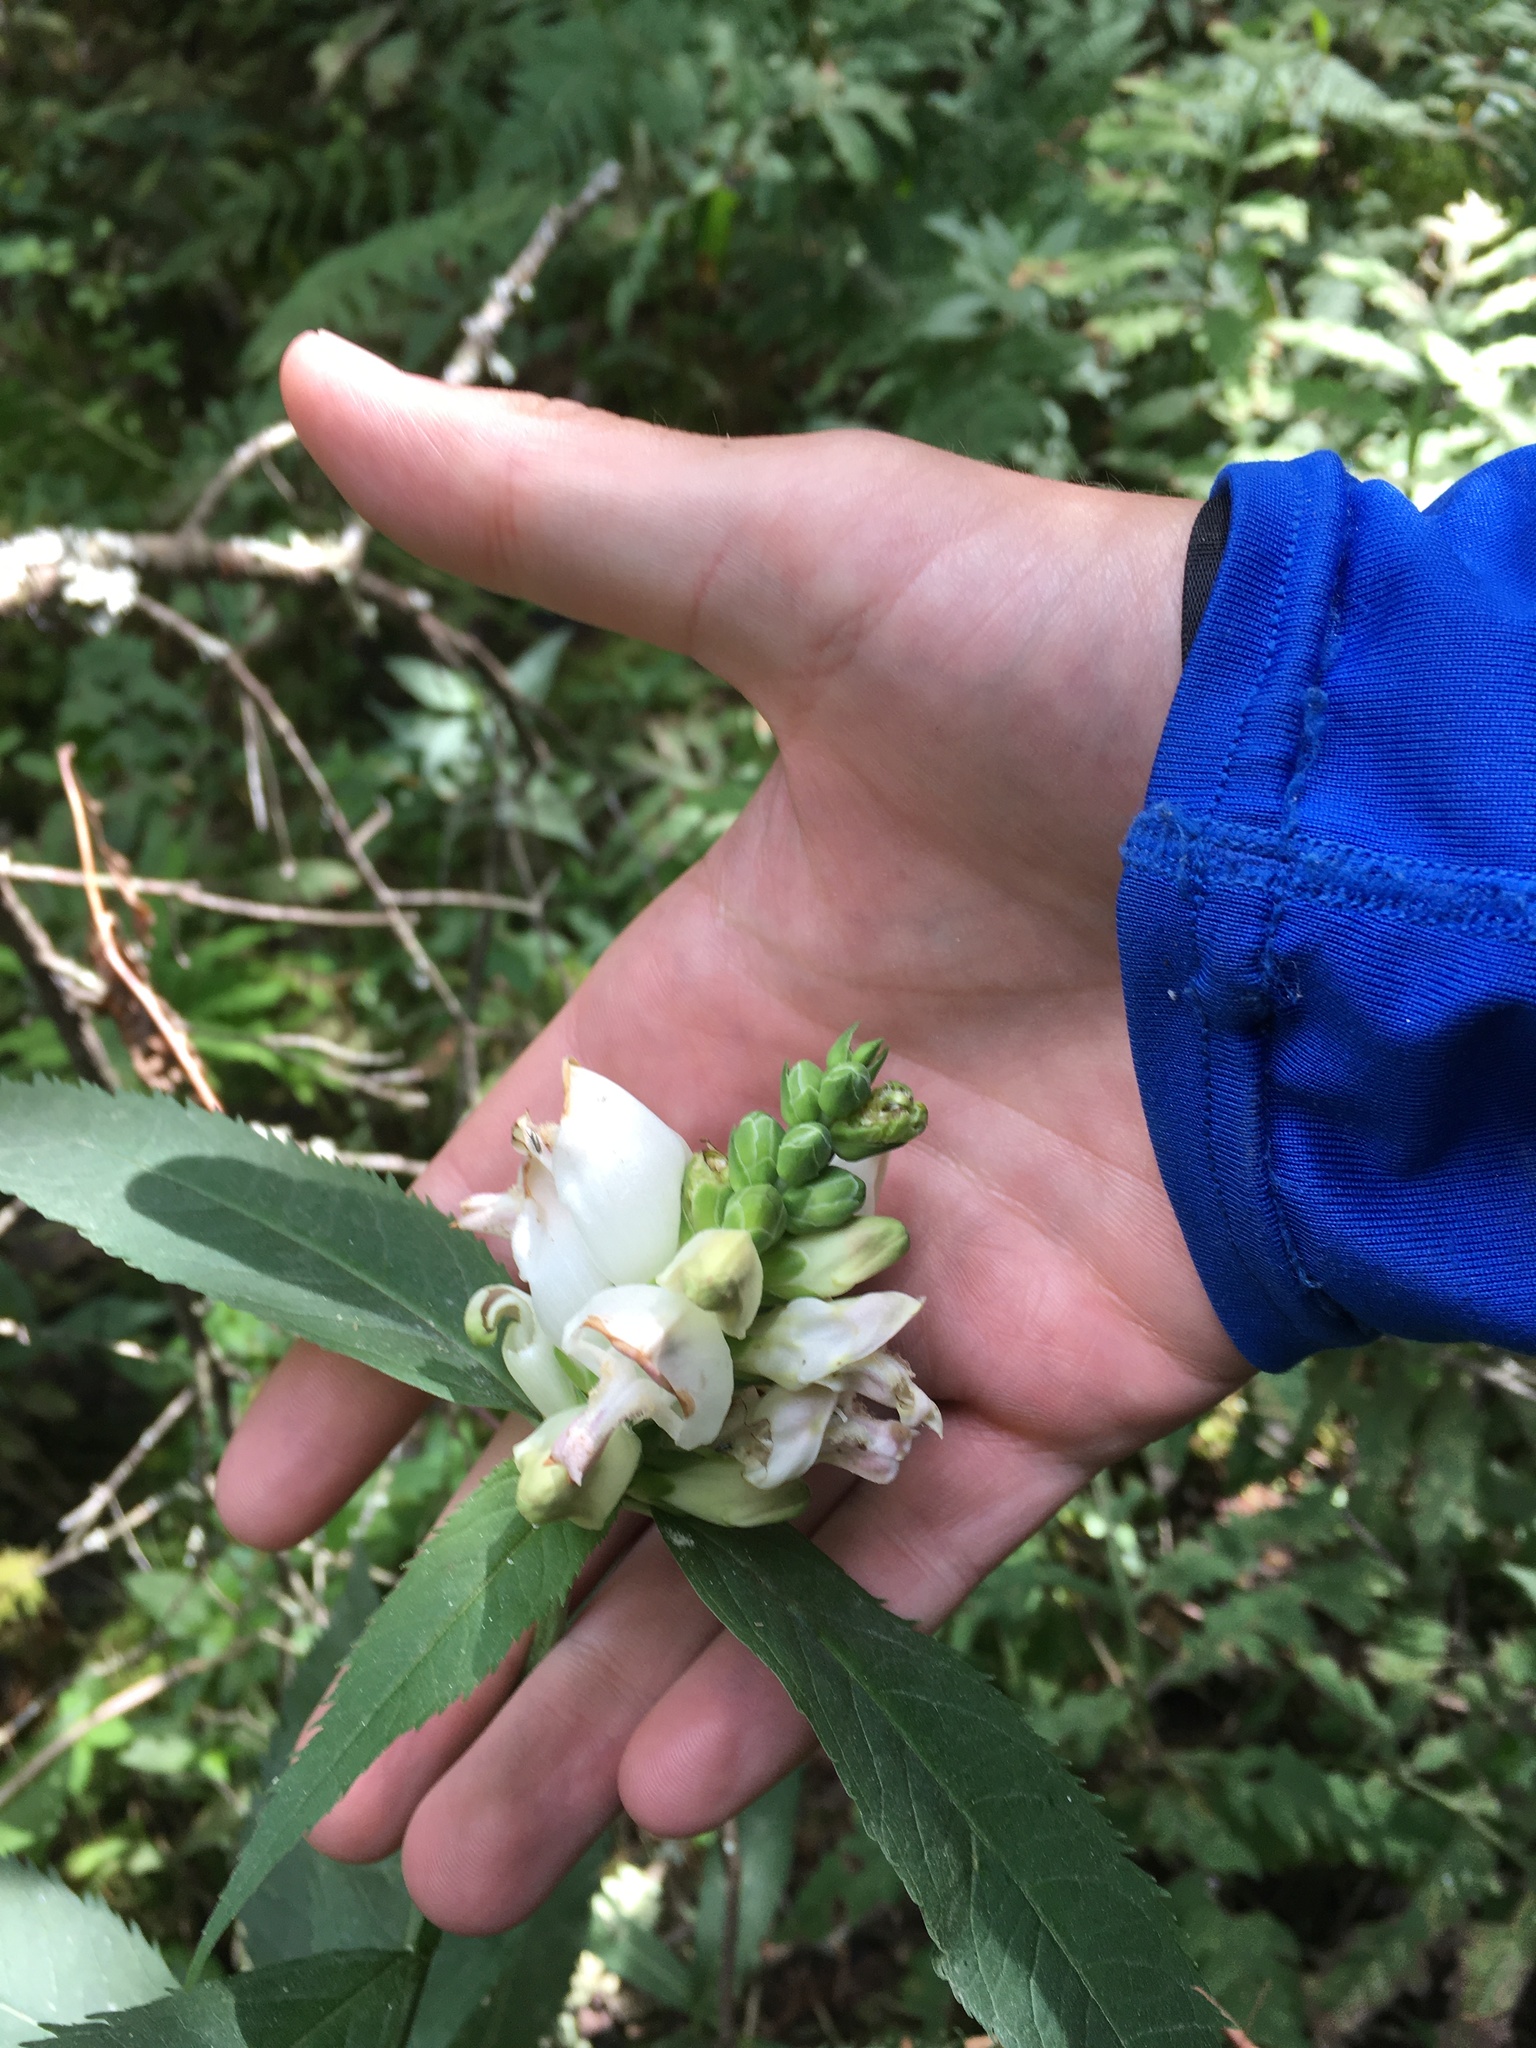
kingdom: Plantae
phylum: Tracheophyta
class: Magnoliopsida
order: Lamiales
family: Plantaginaceae
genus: Chelone
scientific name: Chelone glabra
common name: Snakehead
